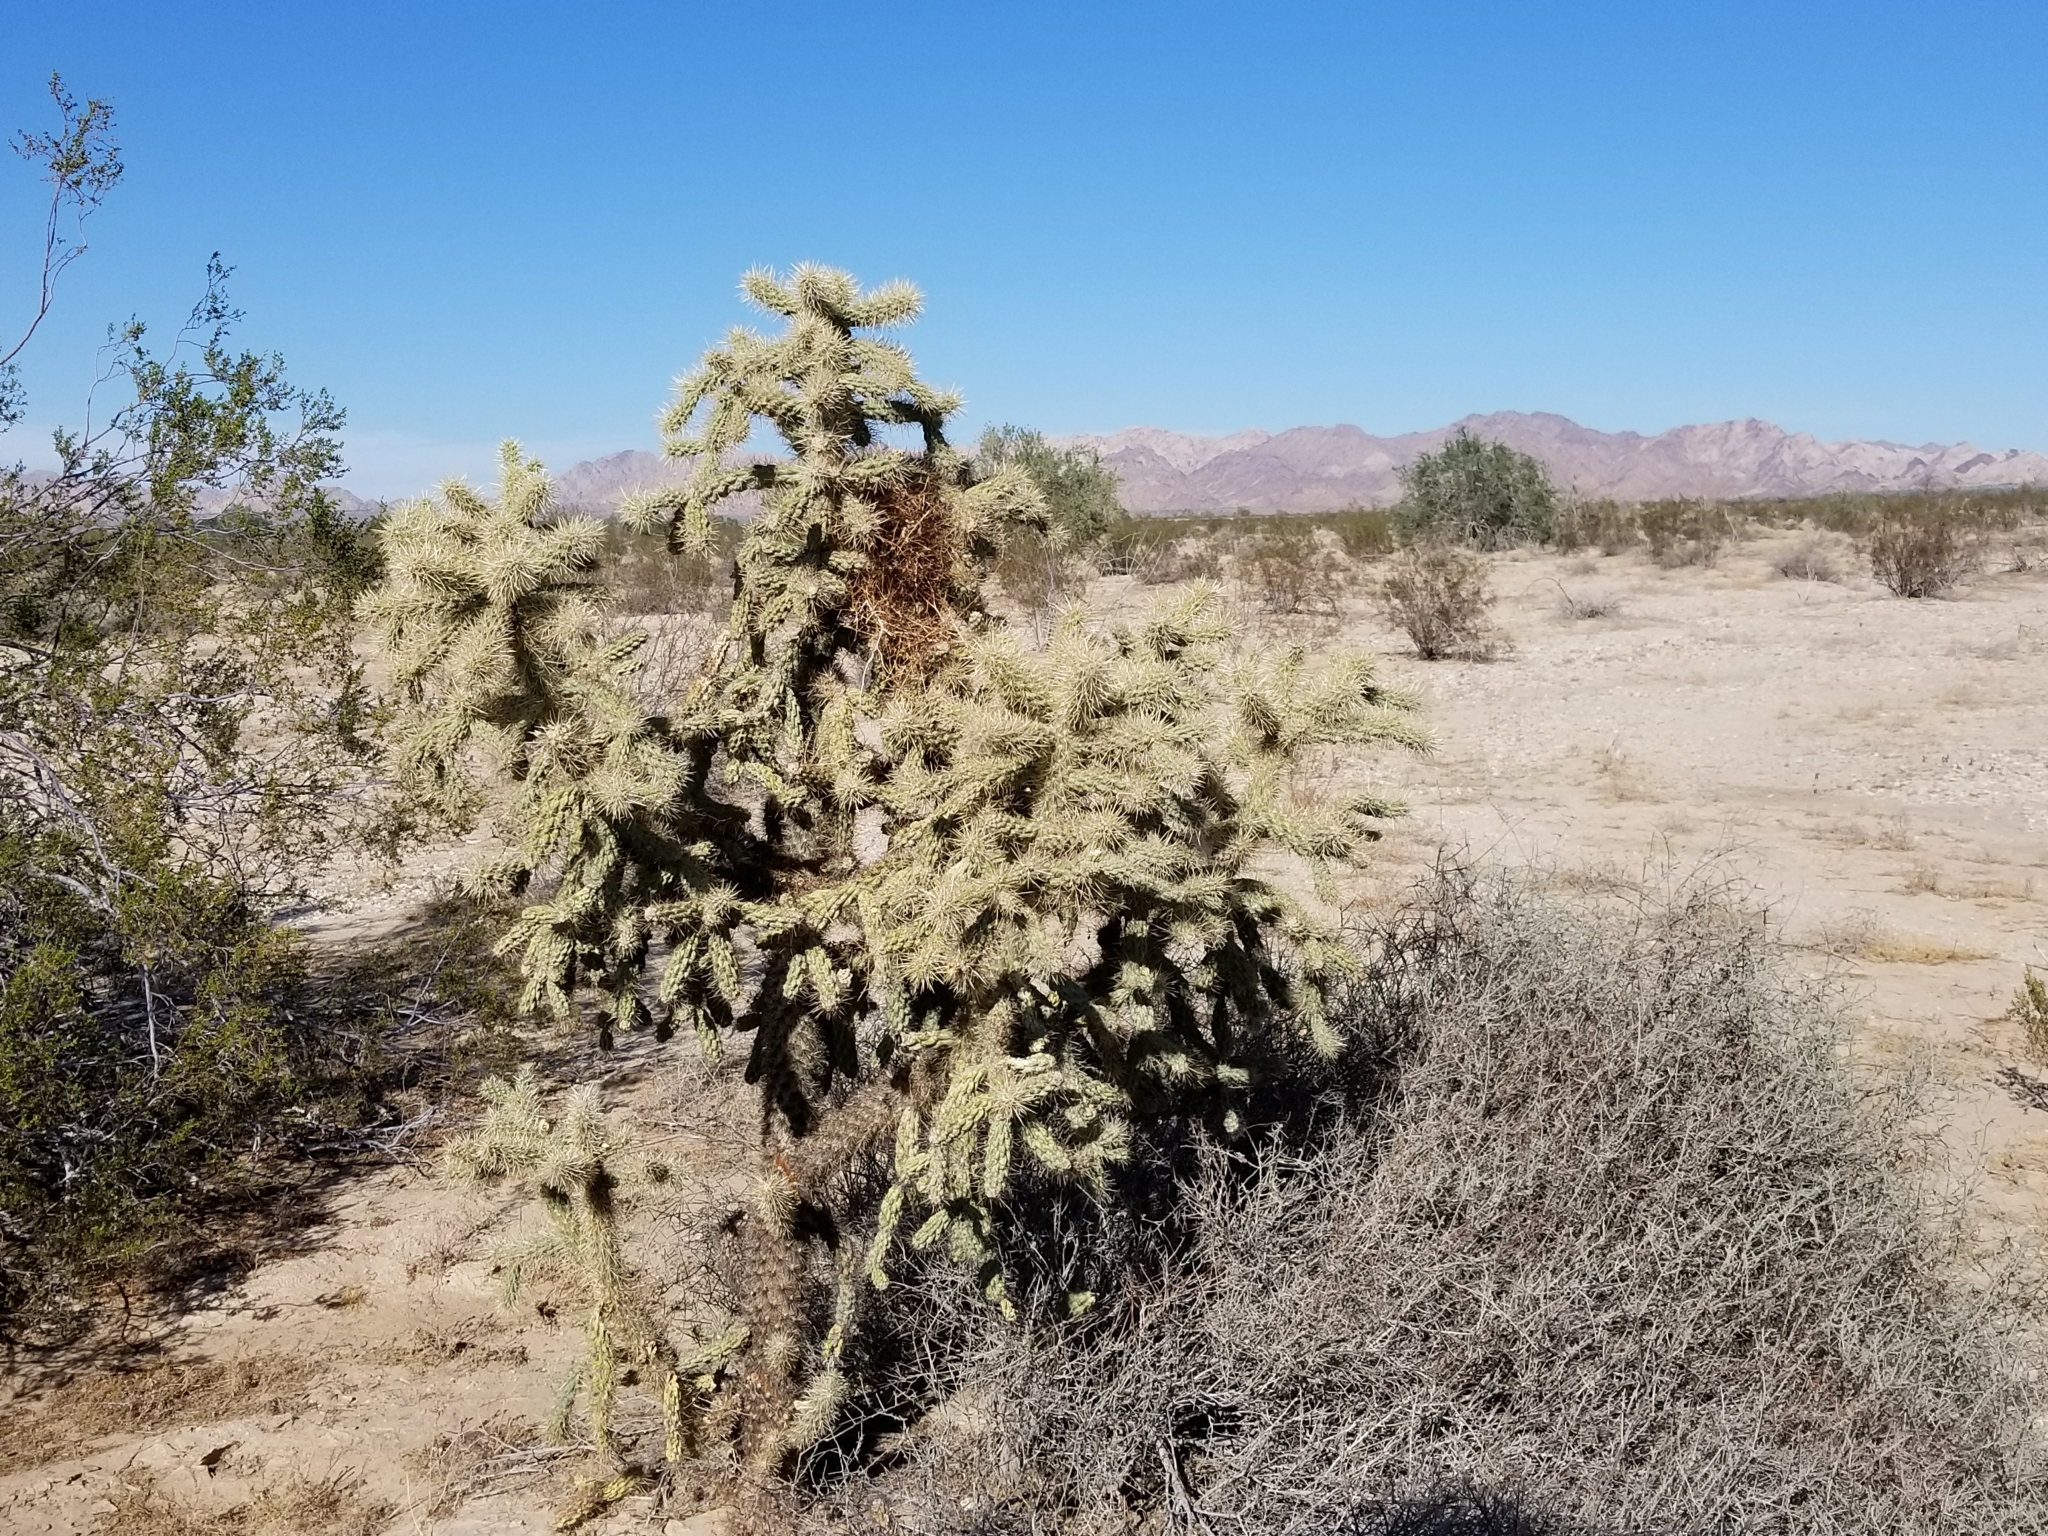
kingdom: Plantae
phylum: Tracheophyta
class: Magnoliopsida
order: Caryophyllales
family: Cactaceae
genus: Cylindropuntia
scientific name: Cylindropuntia munzii
